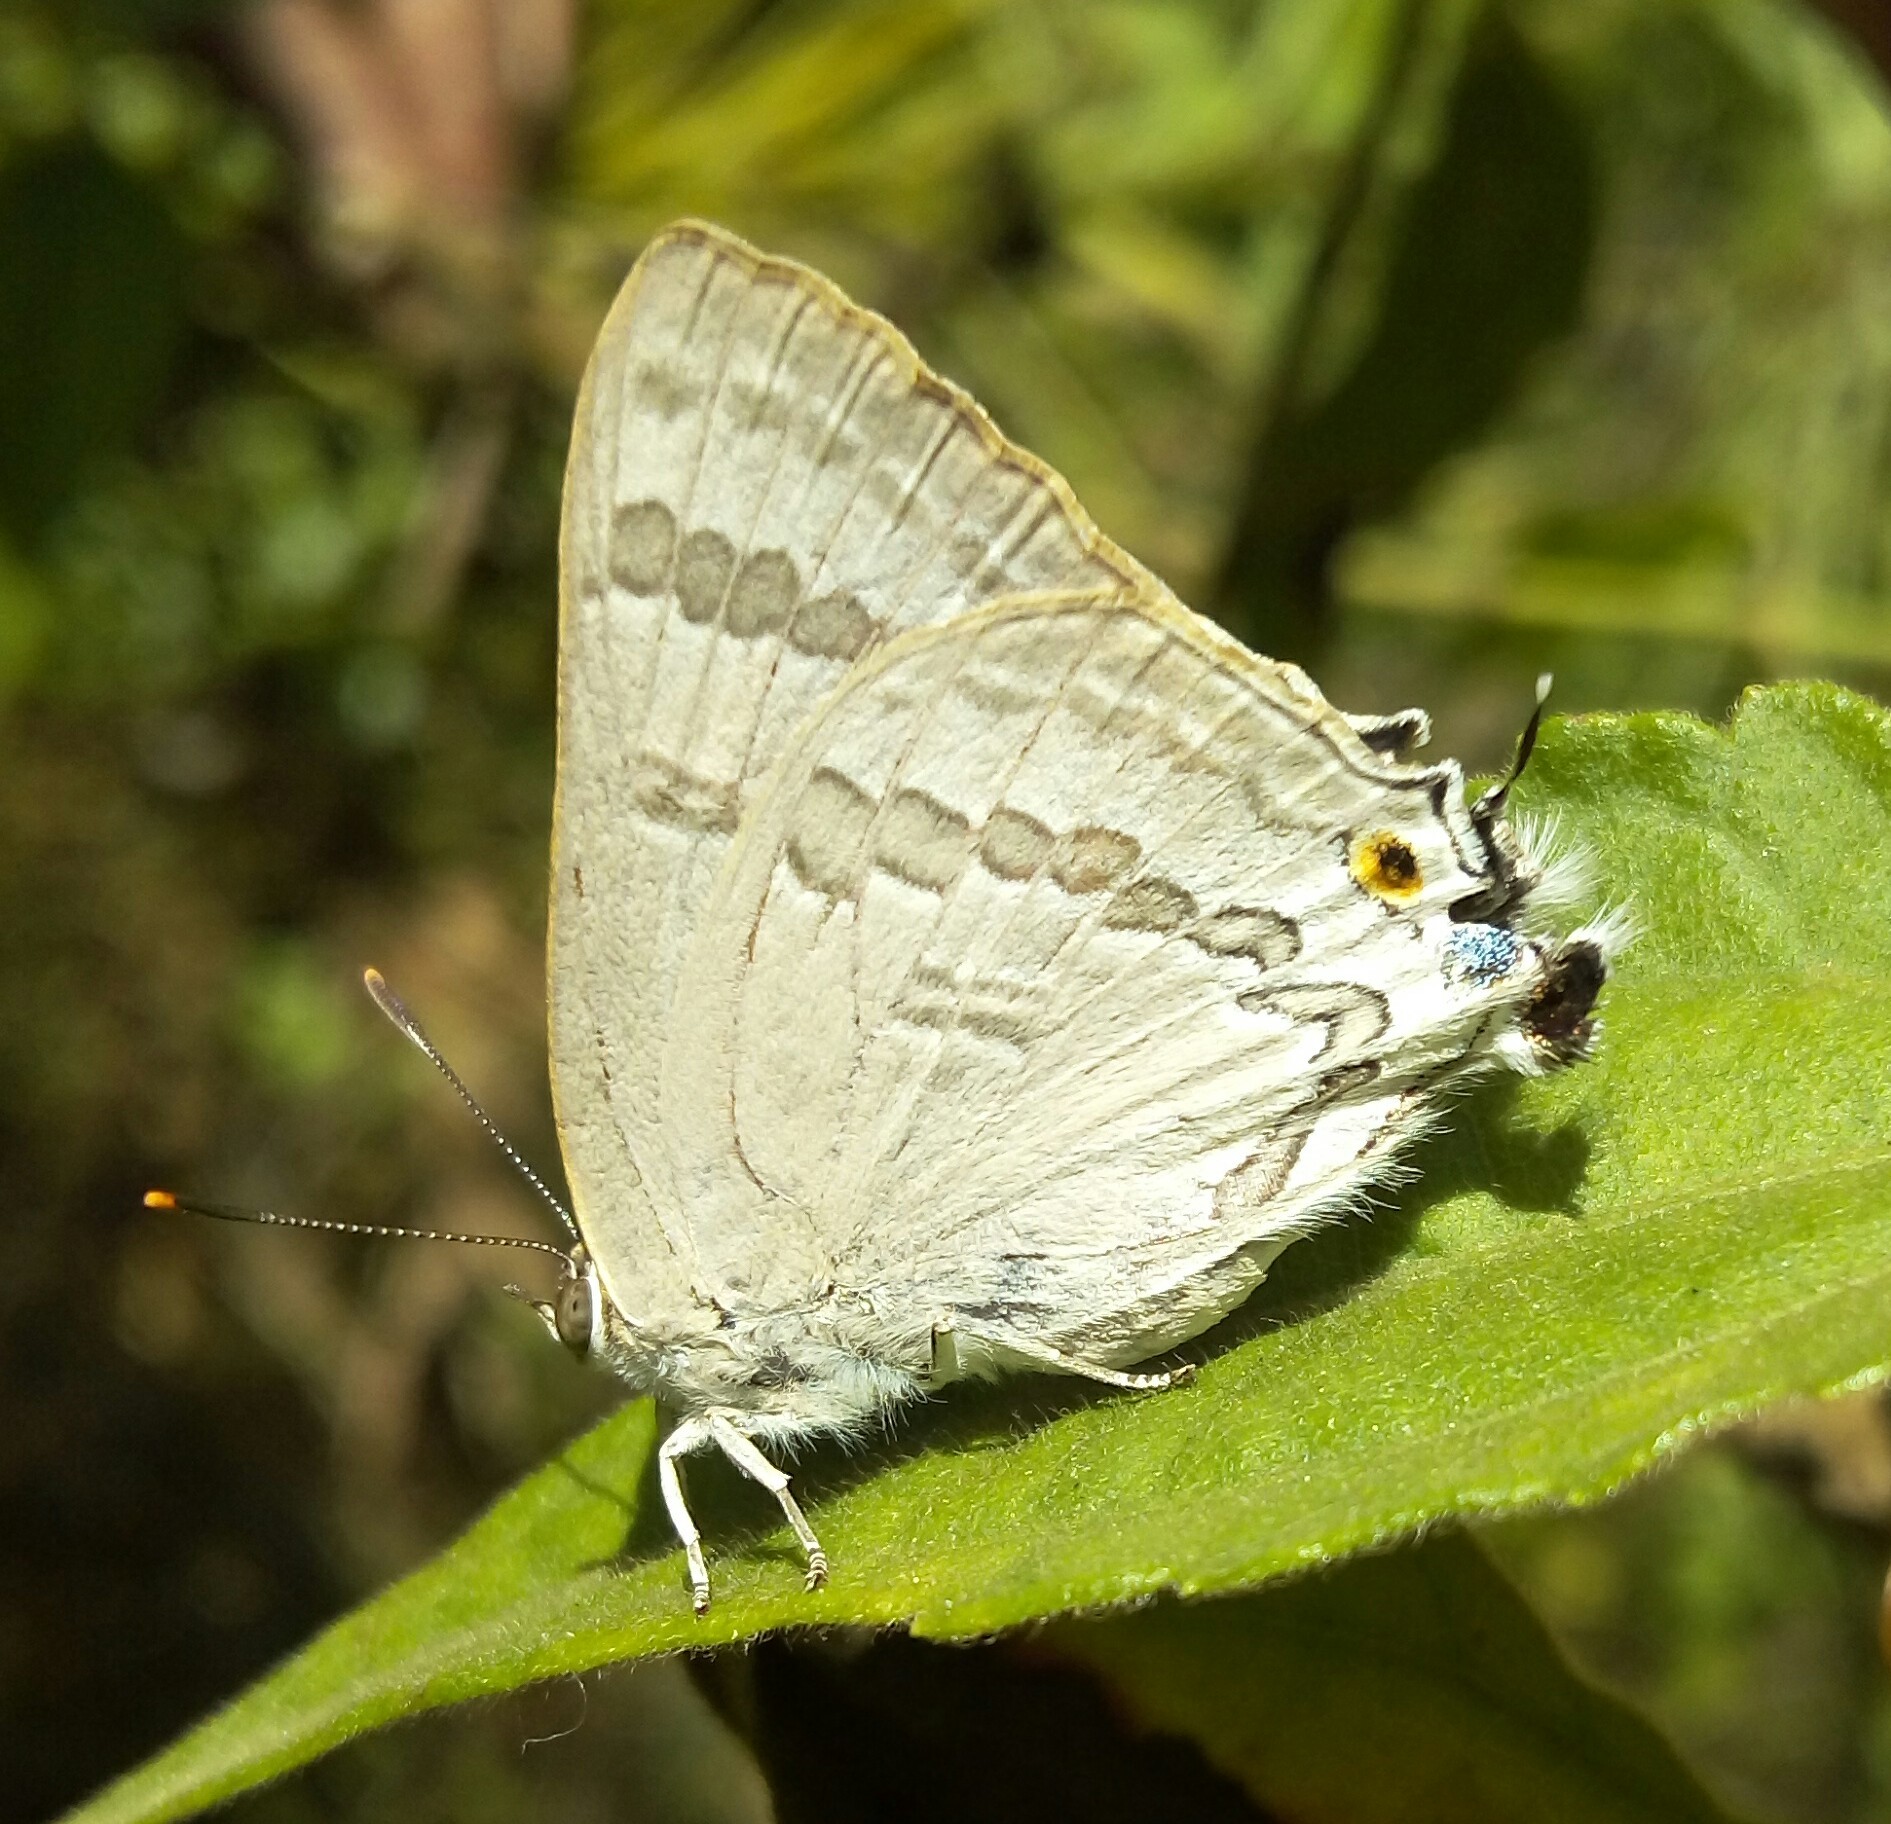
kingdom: Animalia
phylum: Arthropoda
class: Insecta
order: Lepidoptera
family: Lycaenidae
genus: Deudorix
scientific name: Deudorix
